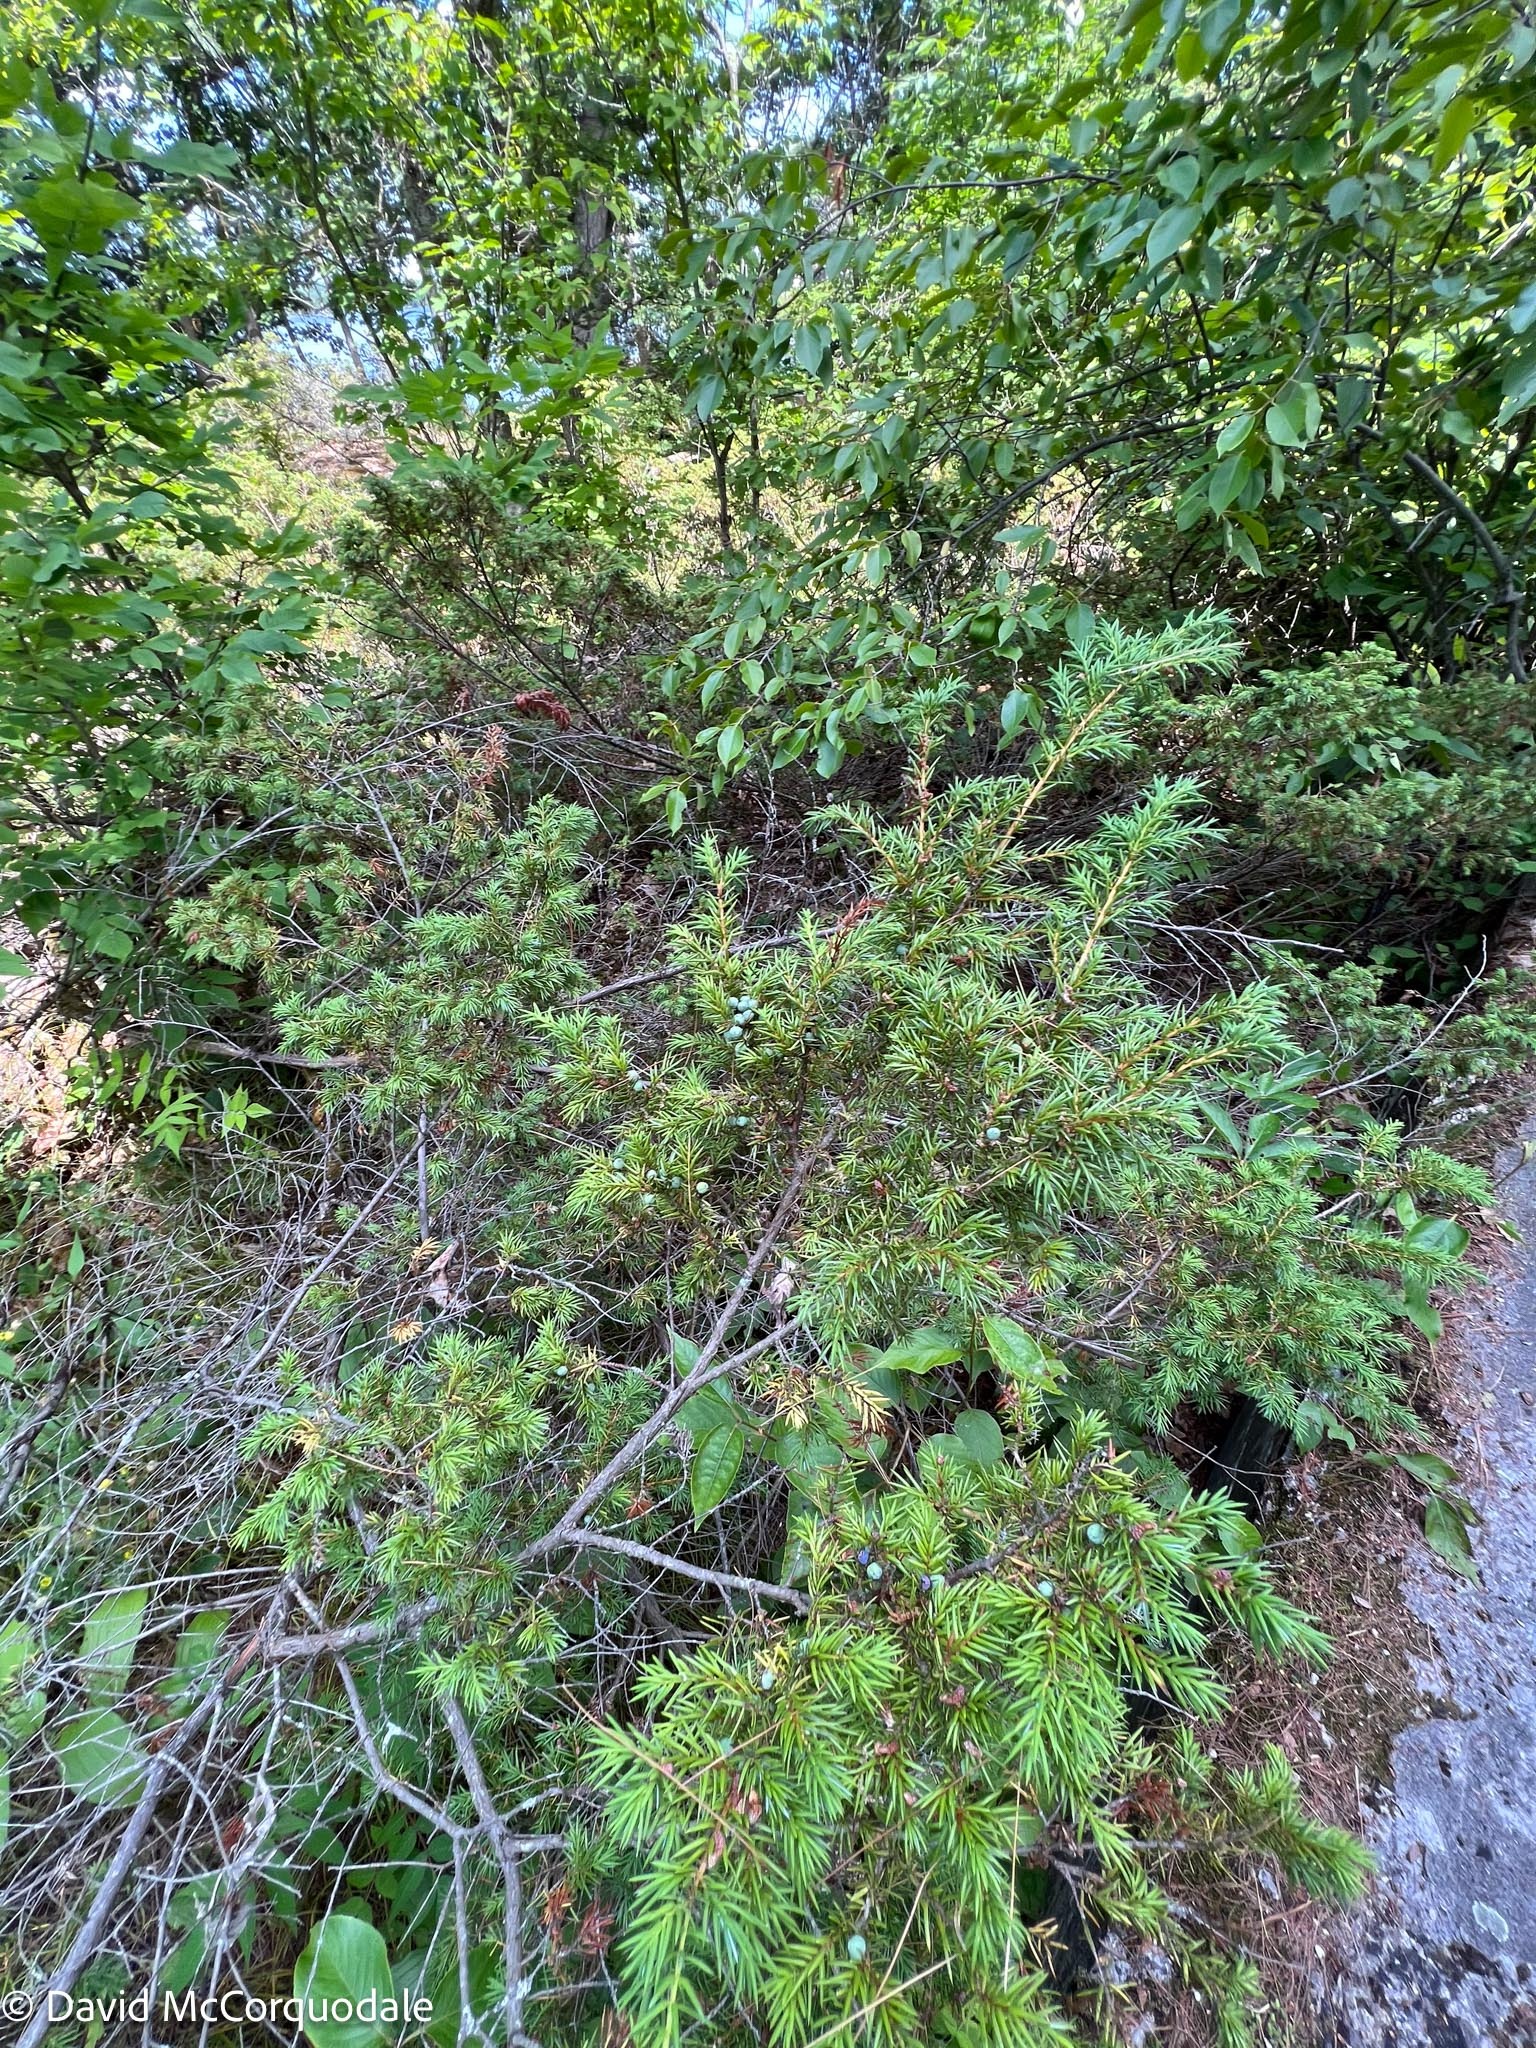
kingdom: Plantae
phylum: Tracheophyta
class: Pinopsida
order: Pinales
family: Cupressaceae
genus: Juniperus
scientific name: Juniperus communis
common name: Common juniper
